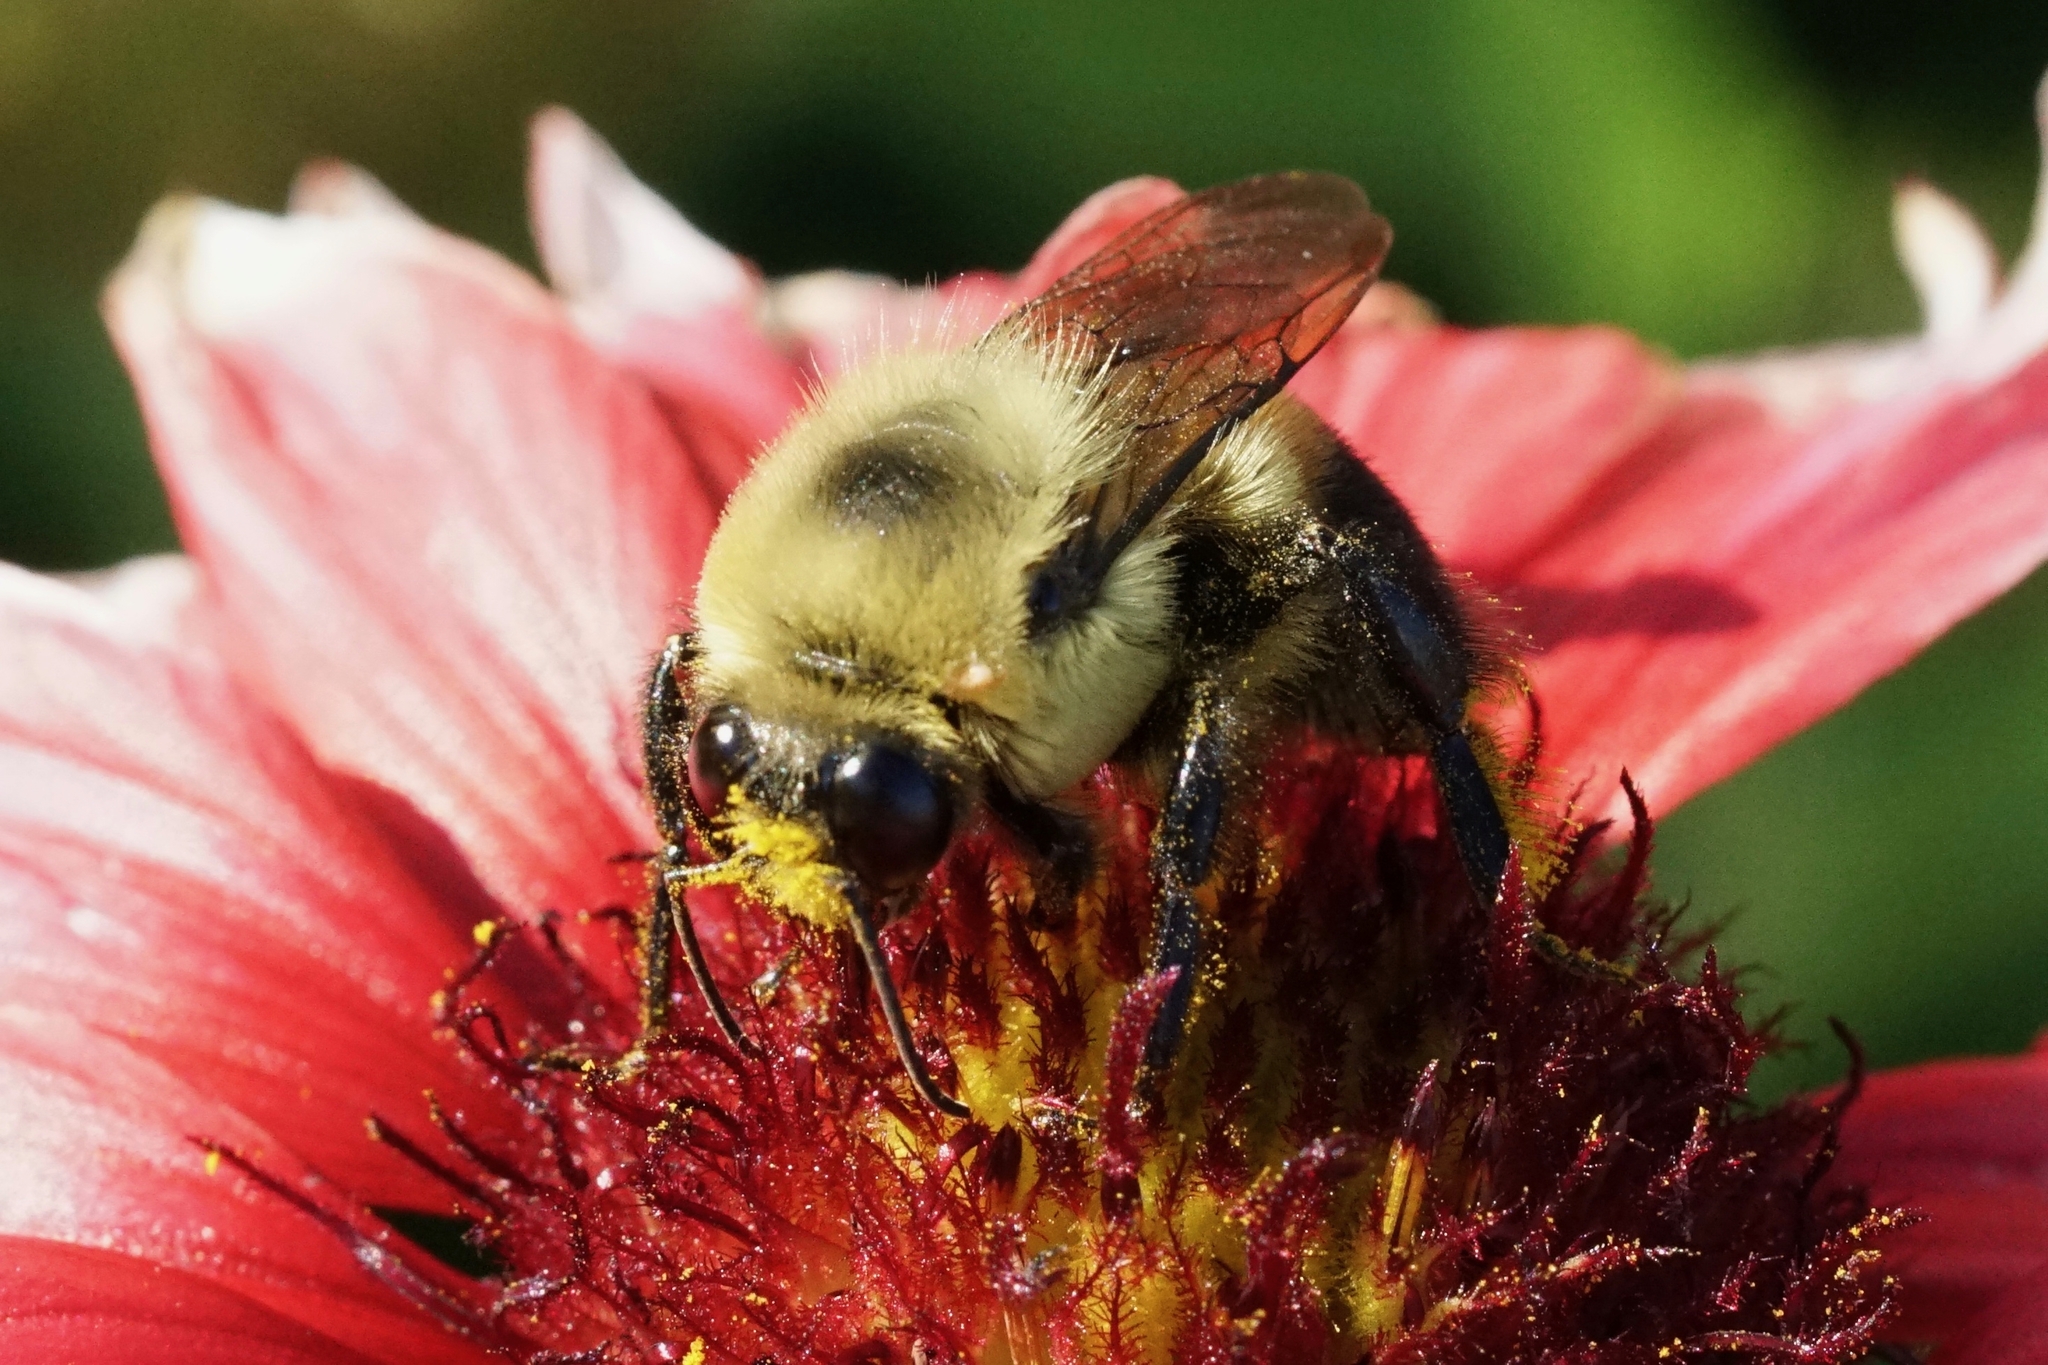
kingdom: Animalia
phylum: Arthropoda
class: Insecta
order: Hymenoptera
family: Apidae
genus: Bombus
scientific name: Bombus griseocollis
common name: Brown-belted bumble bee
